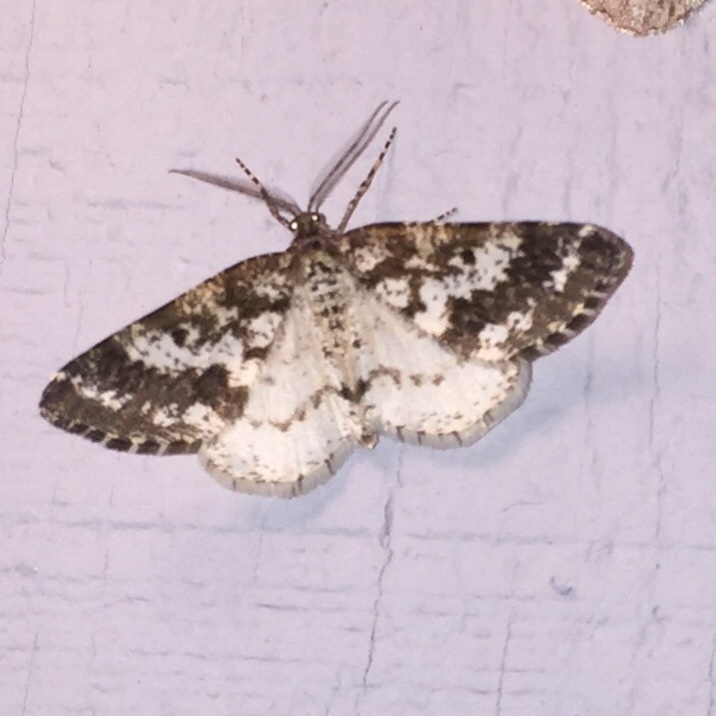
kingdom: Animalia
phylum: Arthropoda
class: Insecta
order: Lepidoptera
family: Geometridae
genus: Eufidonia
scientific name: Eufidonia notataria
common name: Powder moth
